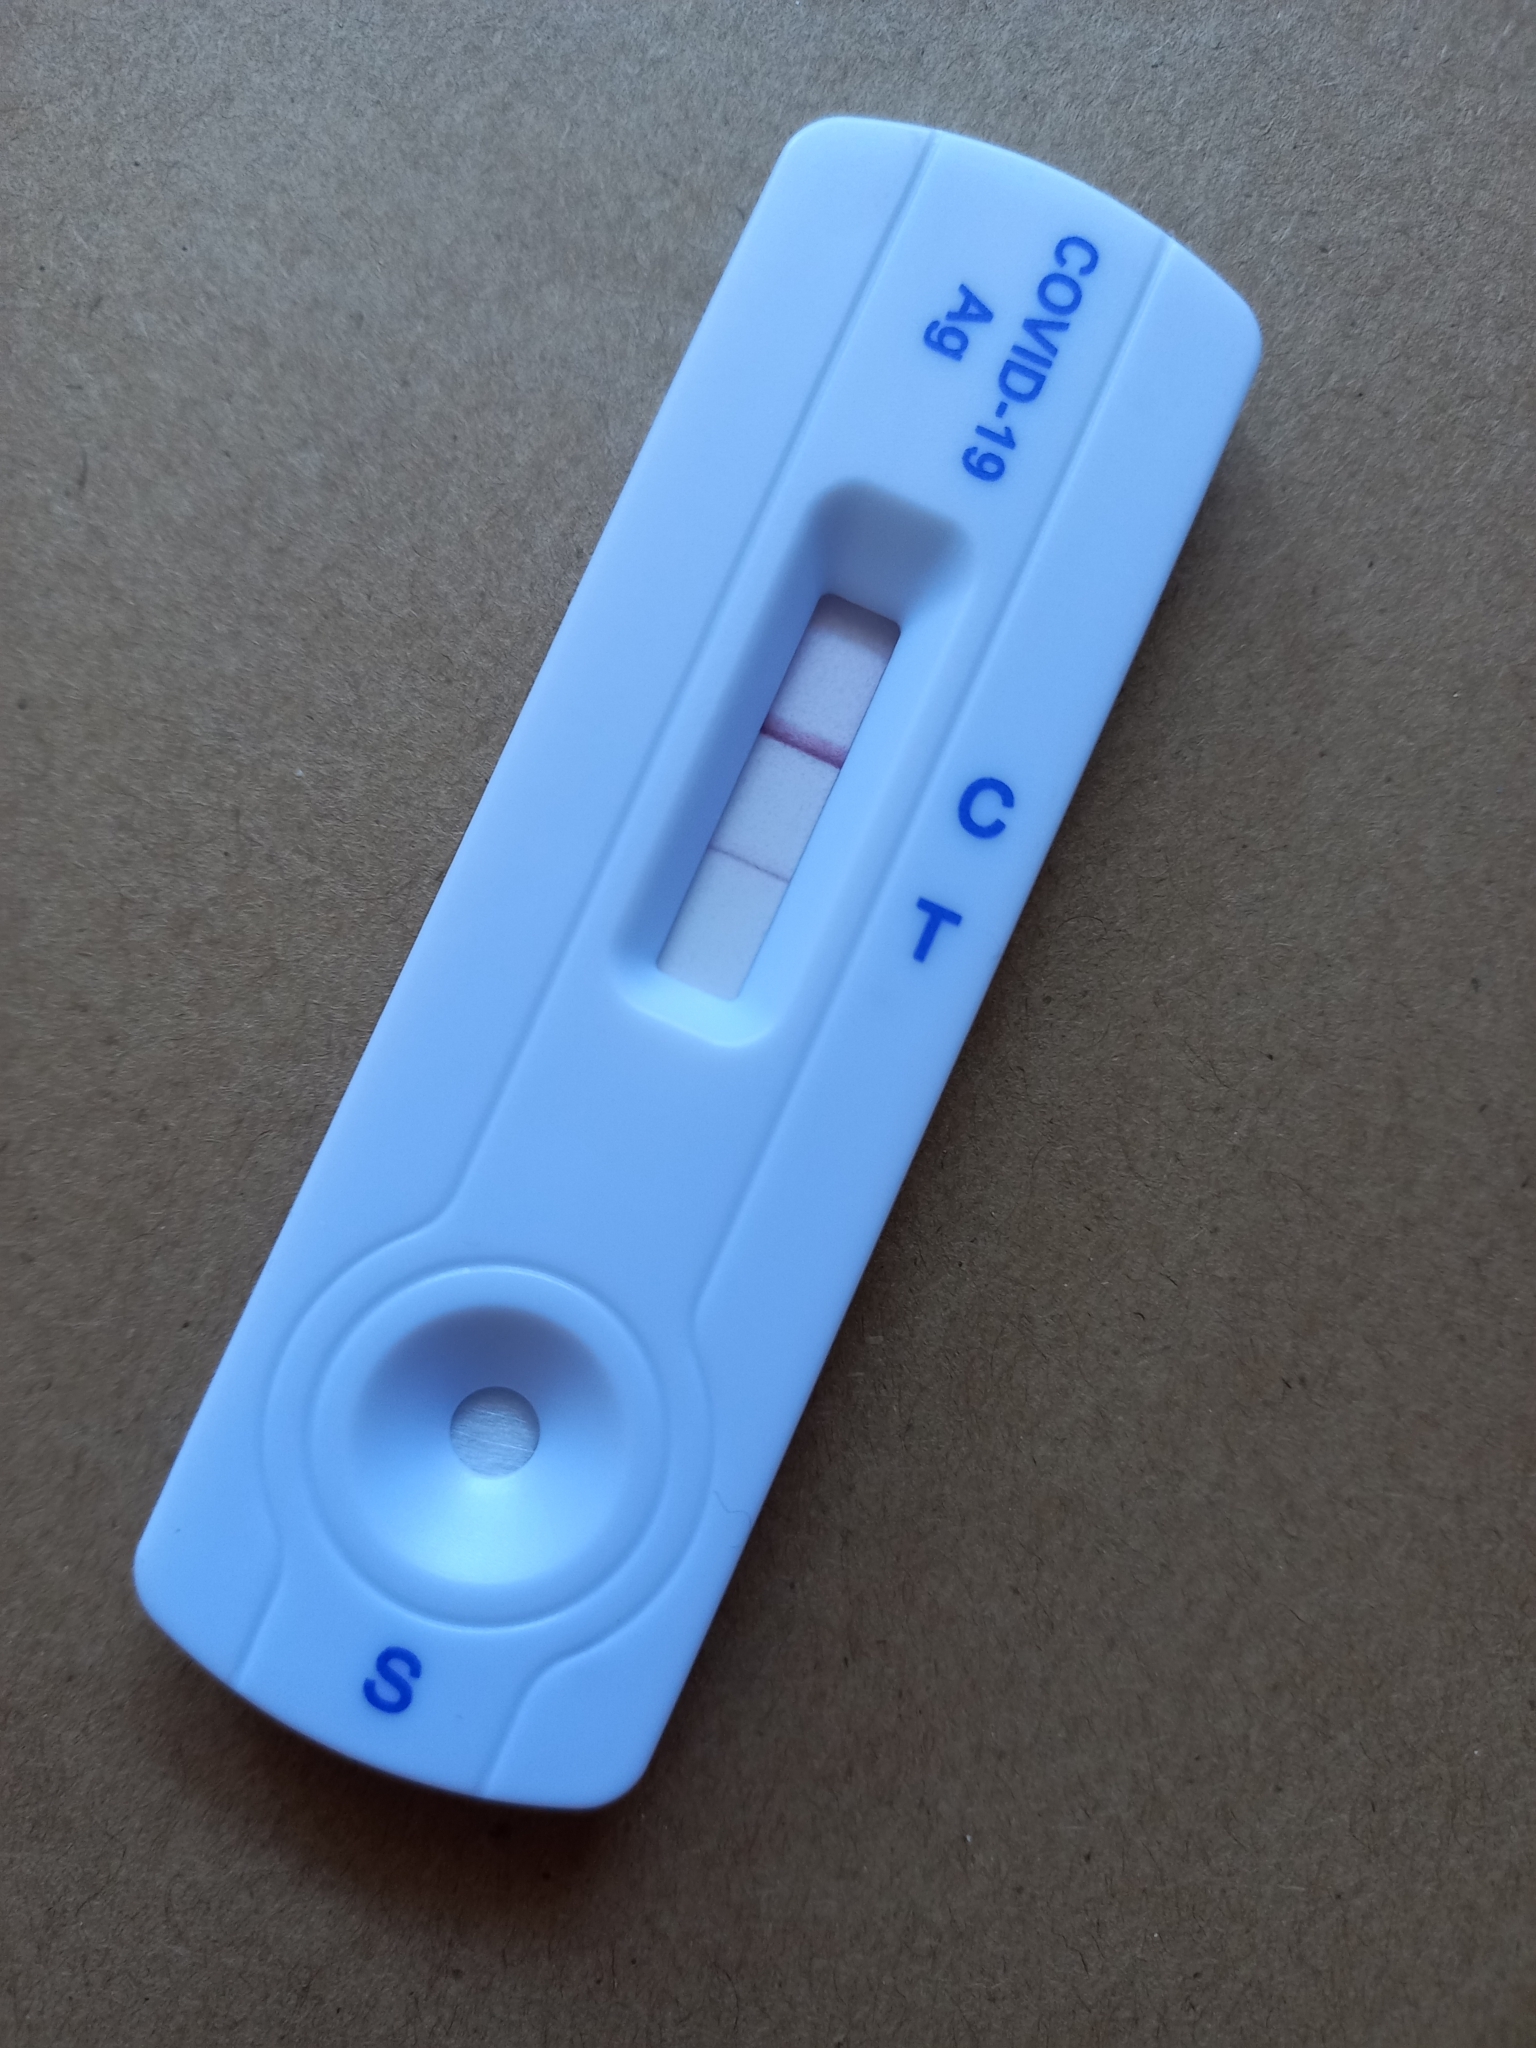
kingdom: Viruses
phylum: Pisuviricota
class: Pisoniviricetes
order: Nidovirales
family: Coronaviridae
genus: Betacoronavirus
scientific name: Betacoronavirus
